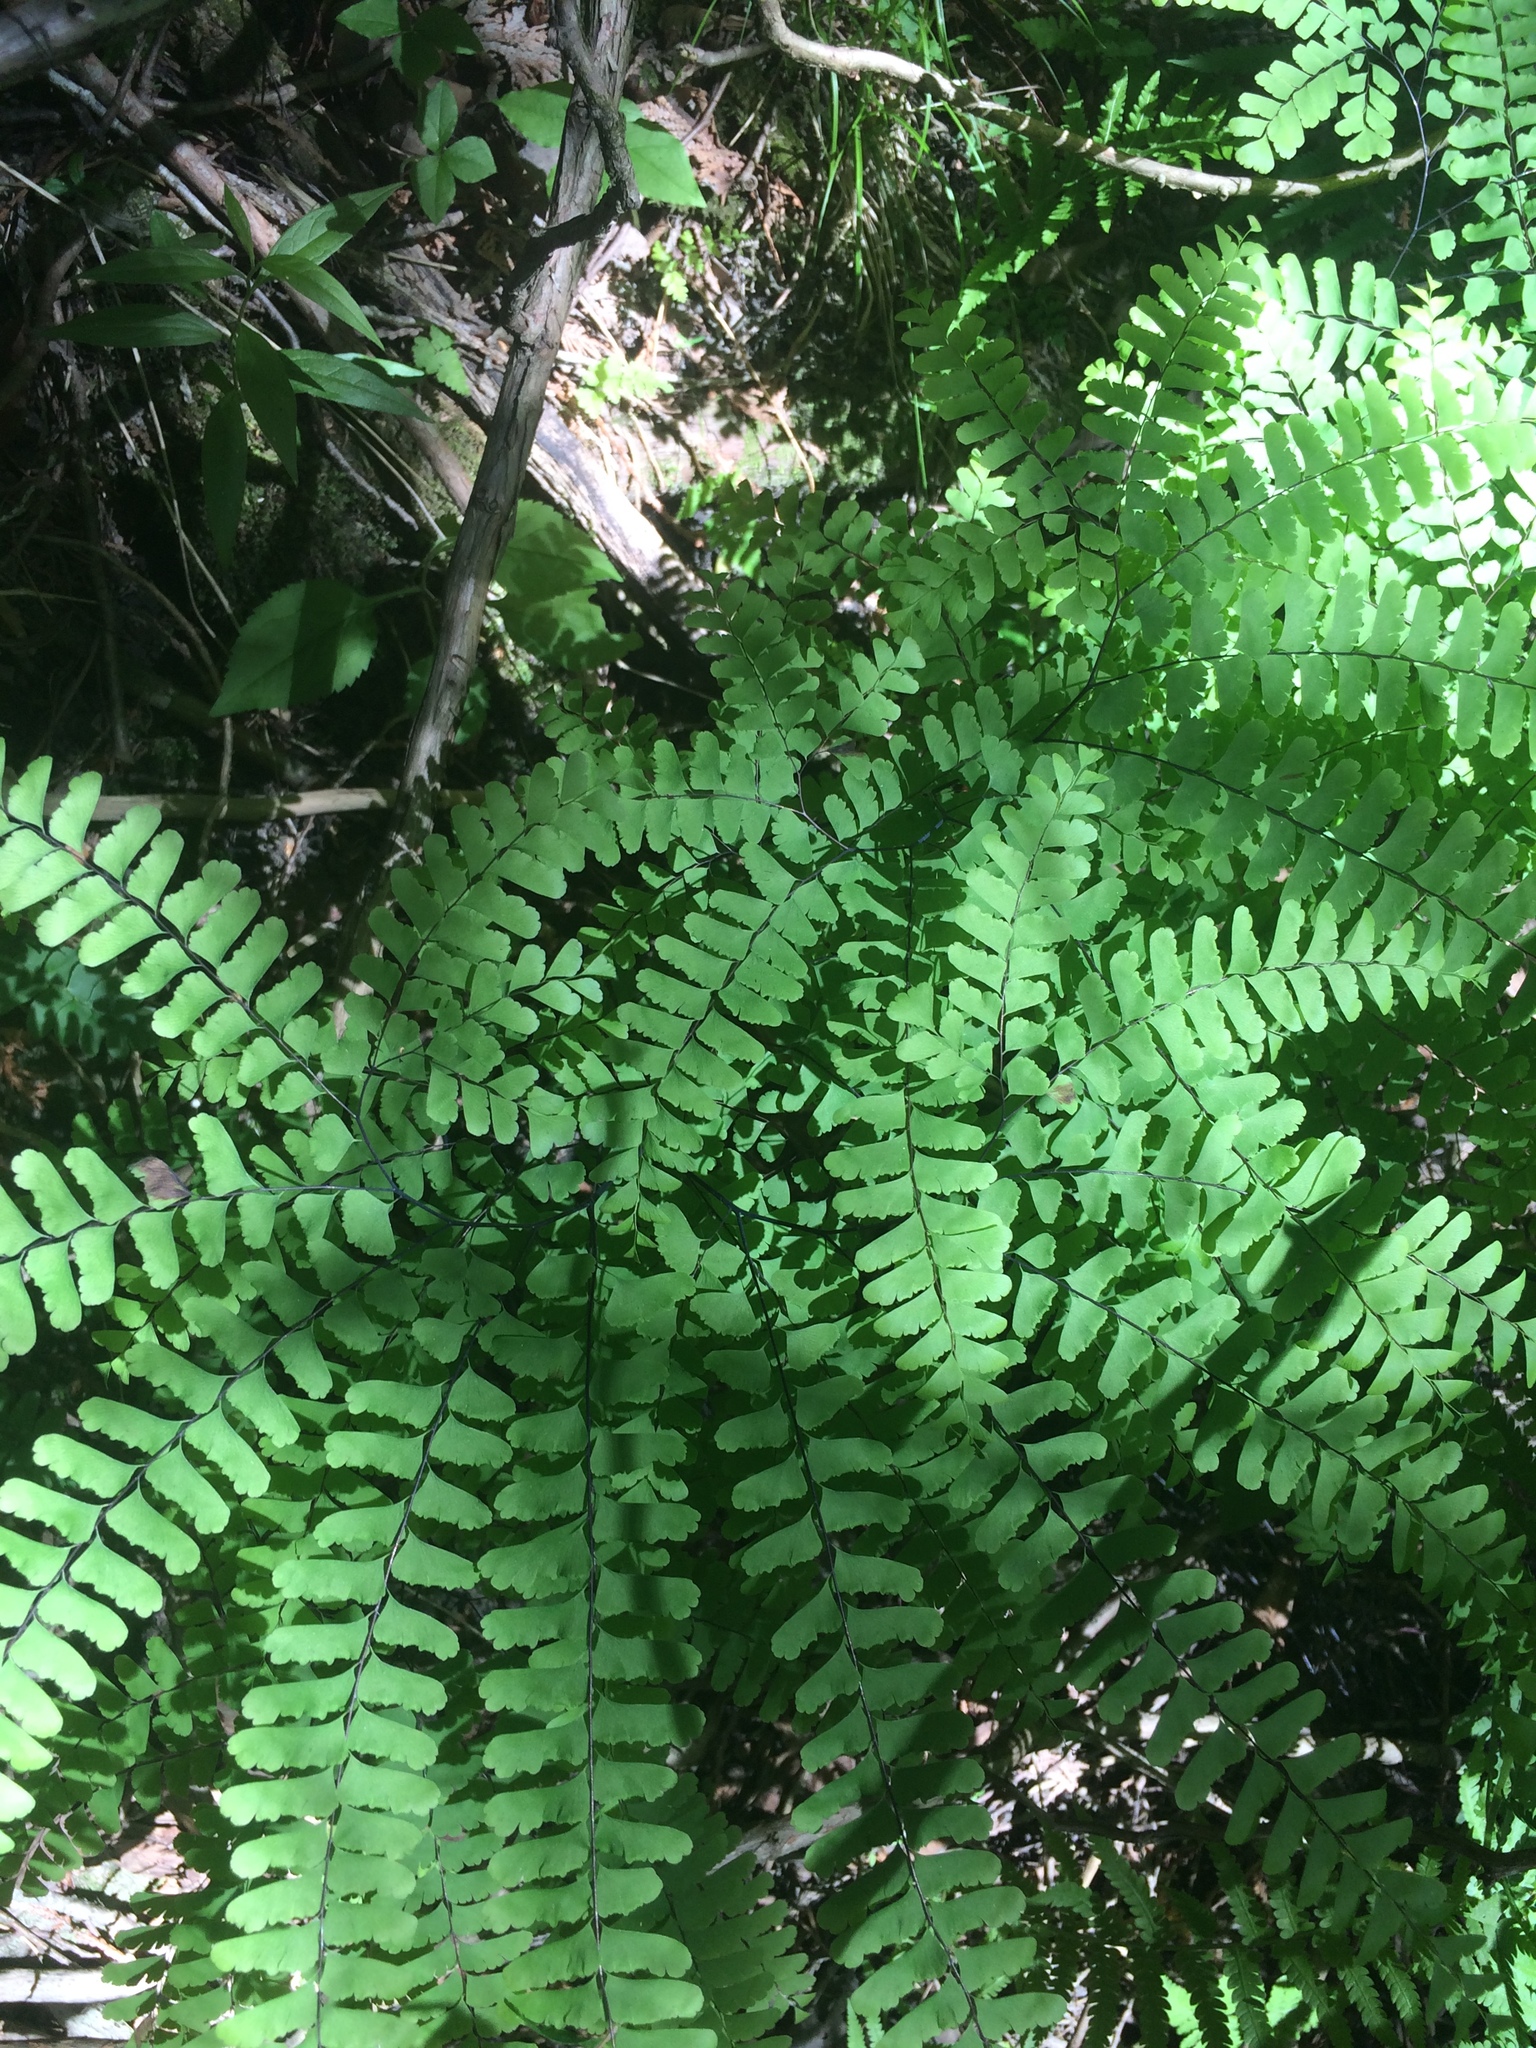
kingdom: Plantae
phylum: Tracheophyta
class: Polypodiopsida
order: Polypodiales
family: Pteridaceae
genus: Adiantum
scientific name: Adiantum pedatum
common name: Five-finger fern
